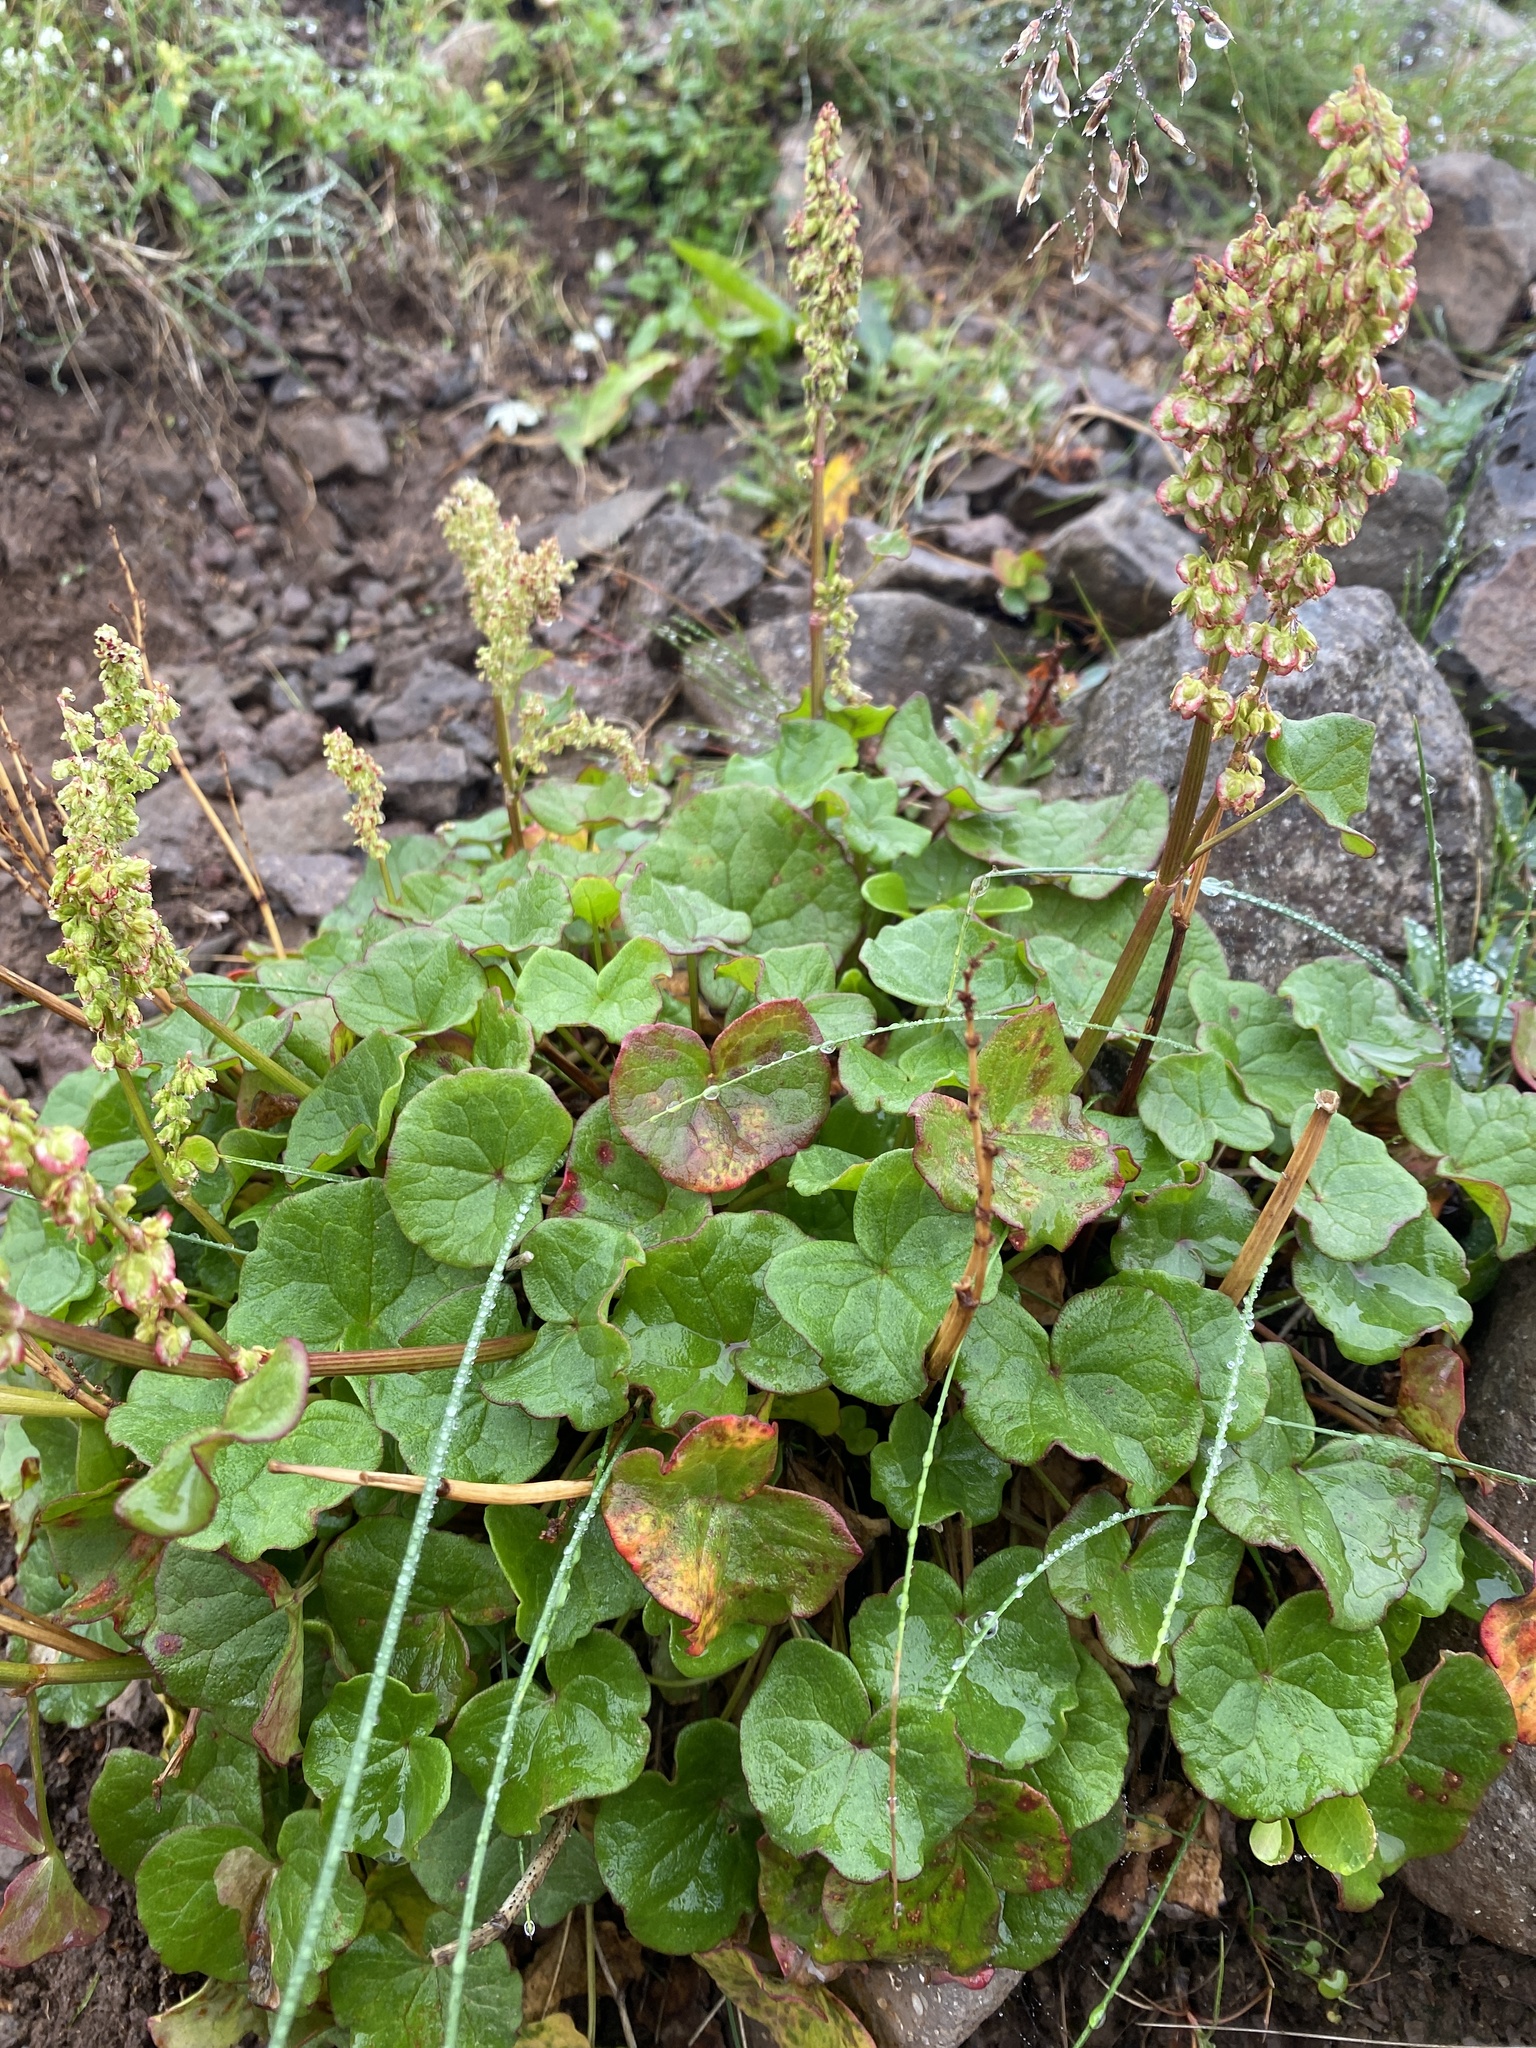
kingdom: Plantae
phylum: Tracheophyta
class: Magnoliopsida
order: Caryophyllales
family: Polygonaceae
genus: Oxyria
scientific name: Oxyria digyna
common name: Alpine mountain-sorrel
